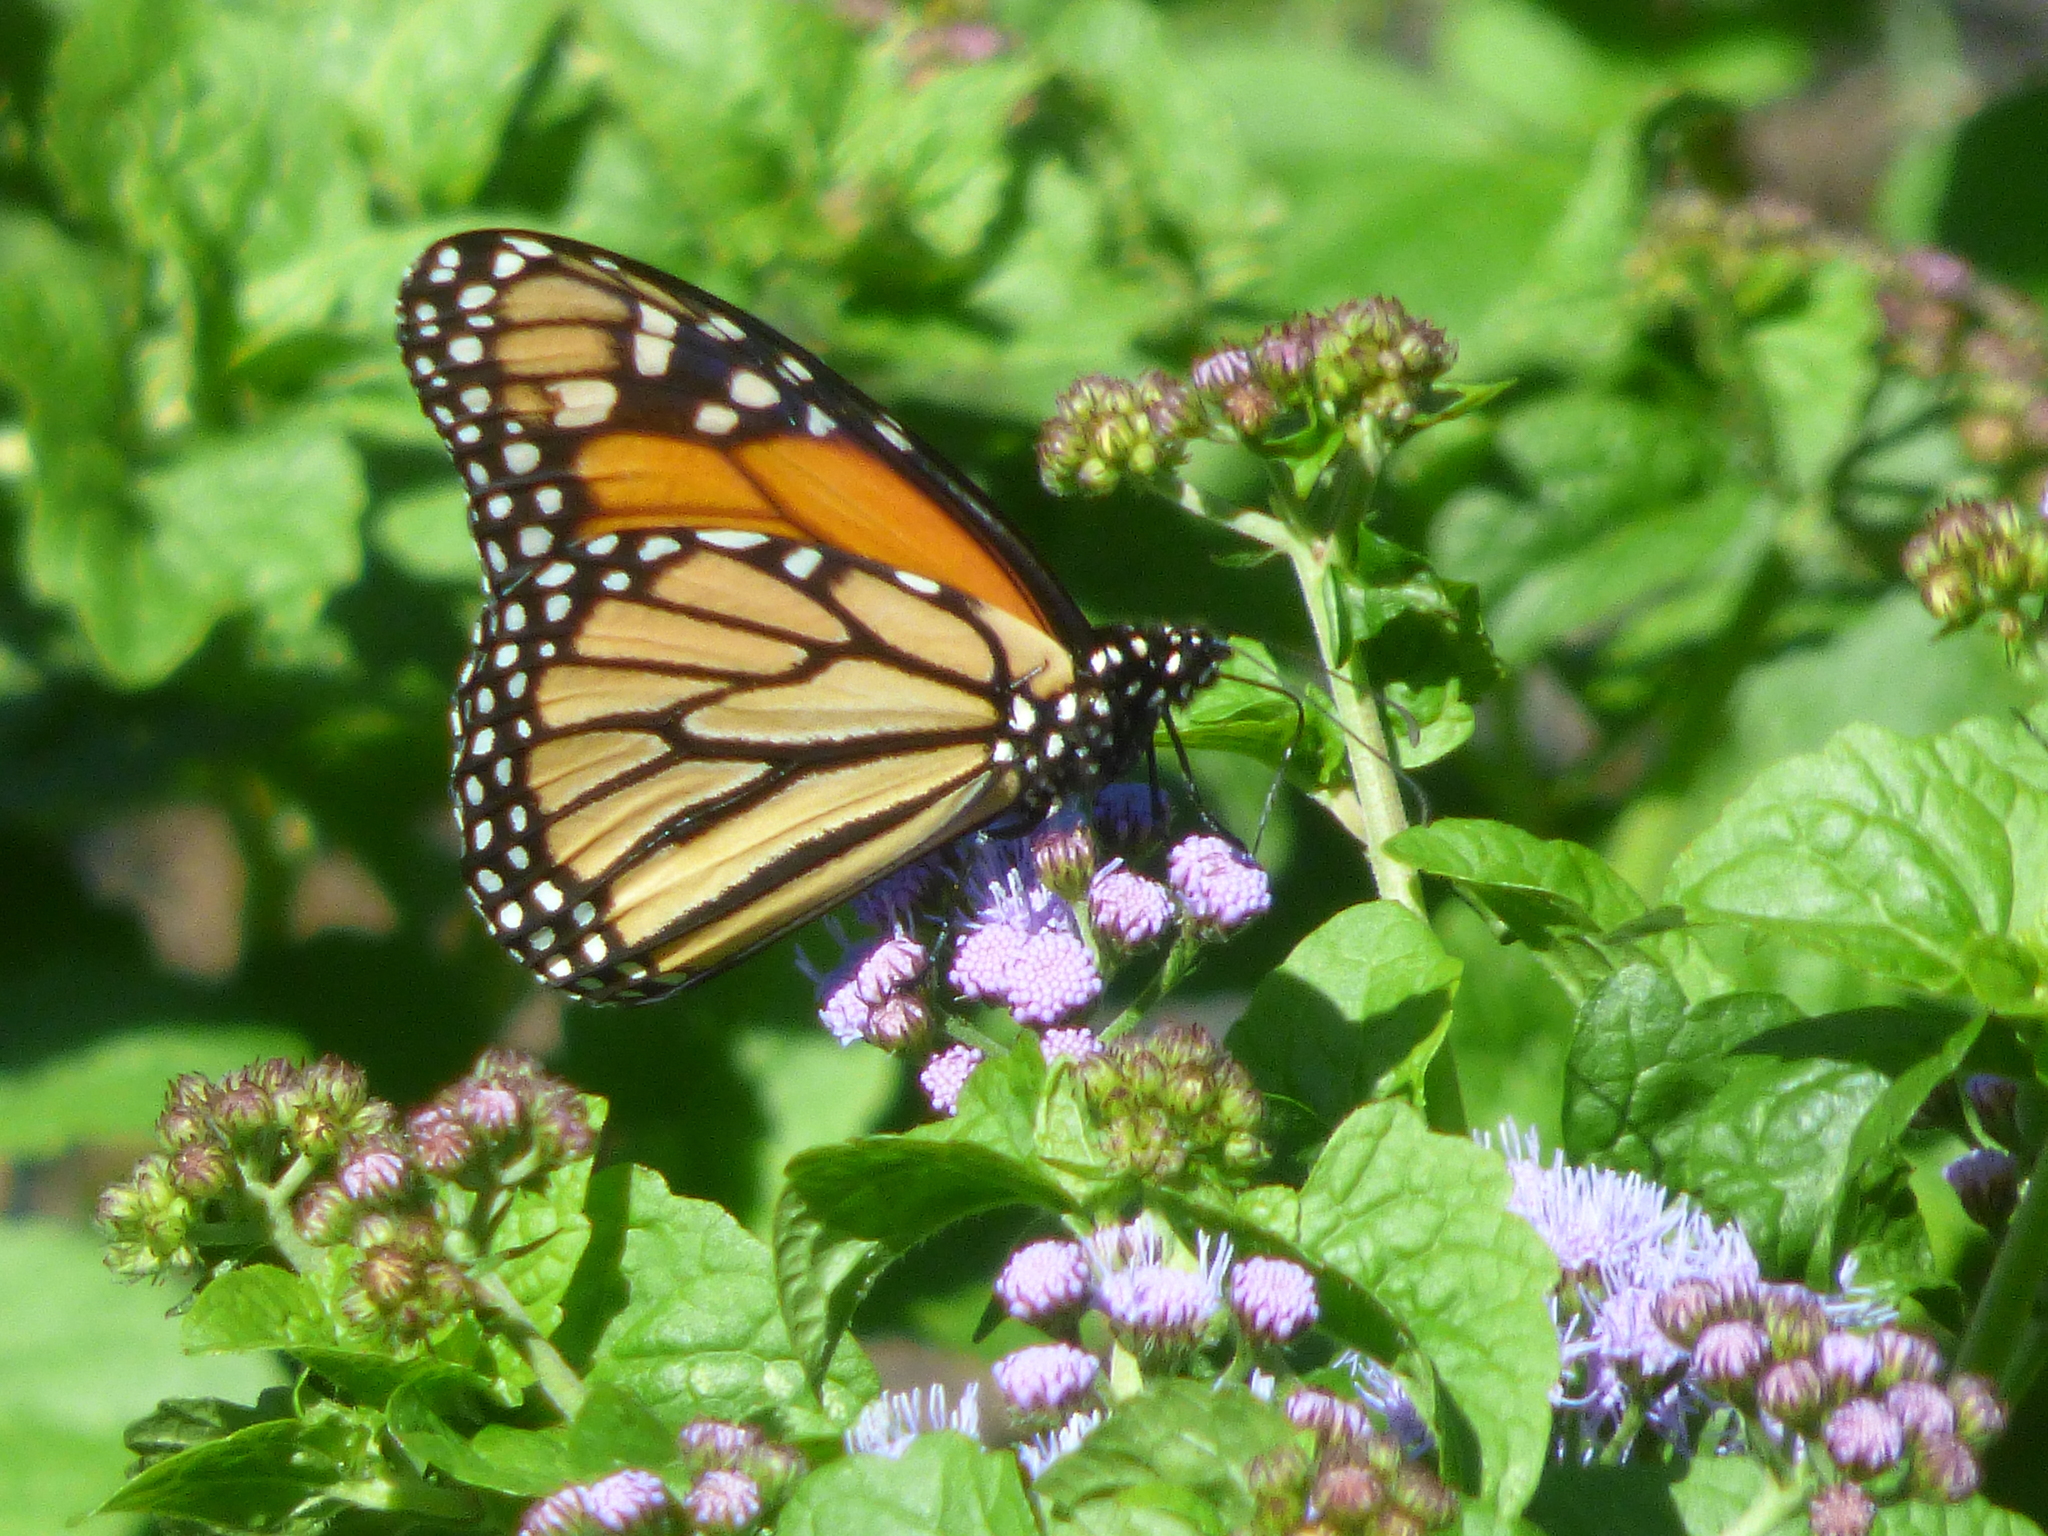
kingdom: Animalia
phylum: Arthropoda
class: Insecta
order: Lepidoptera
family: Nymphalidae
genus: Danaus
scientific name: Danaus plexippus
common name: Monarch
